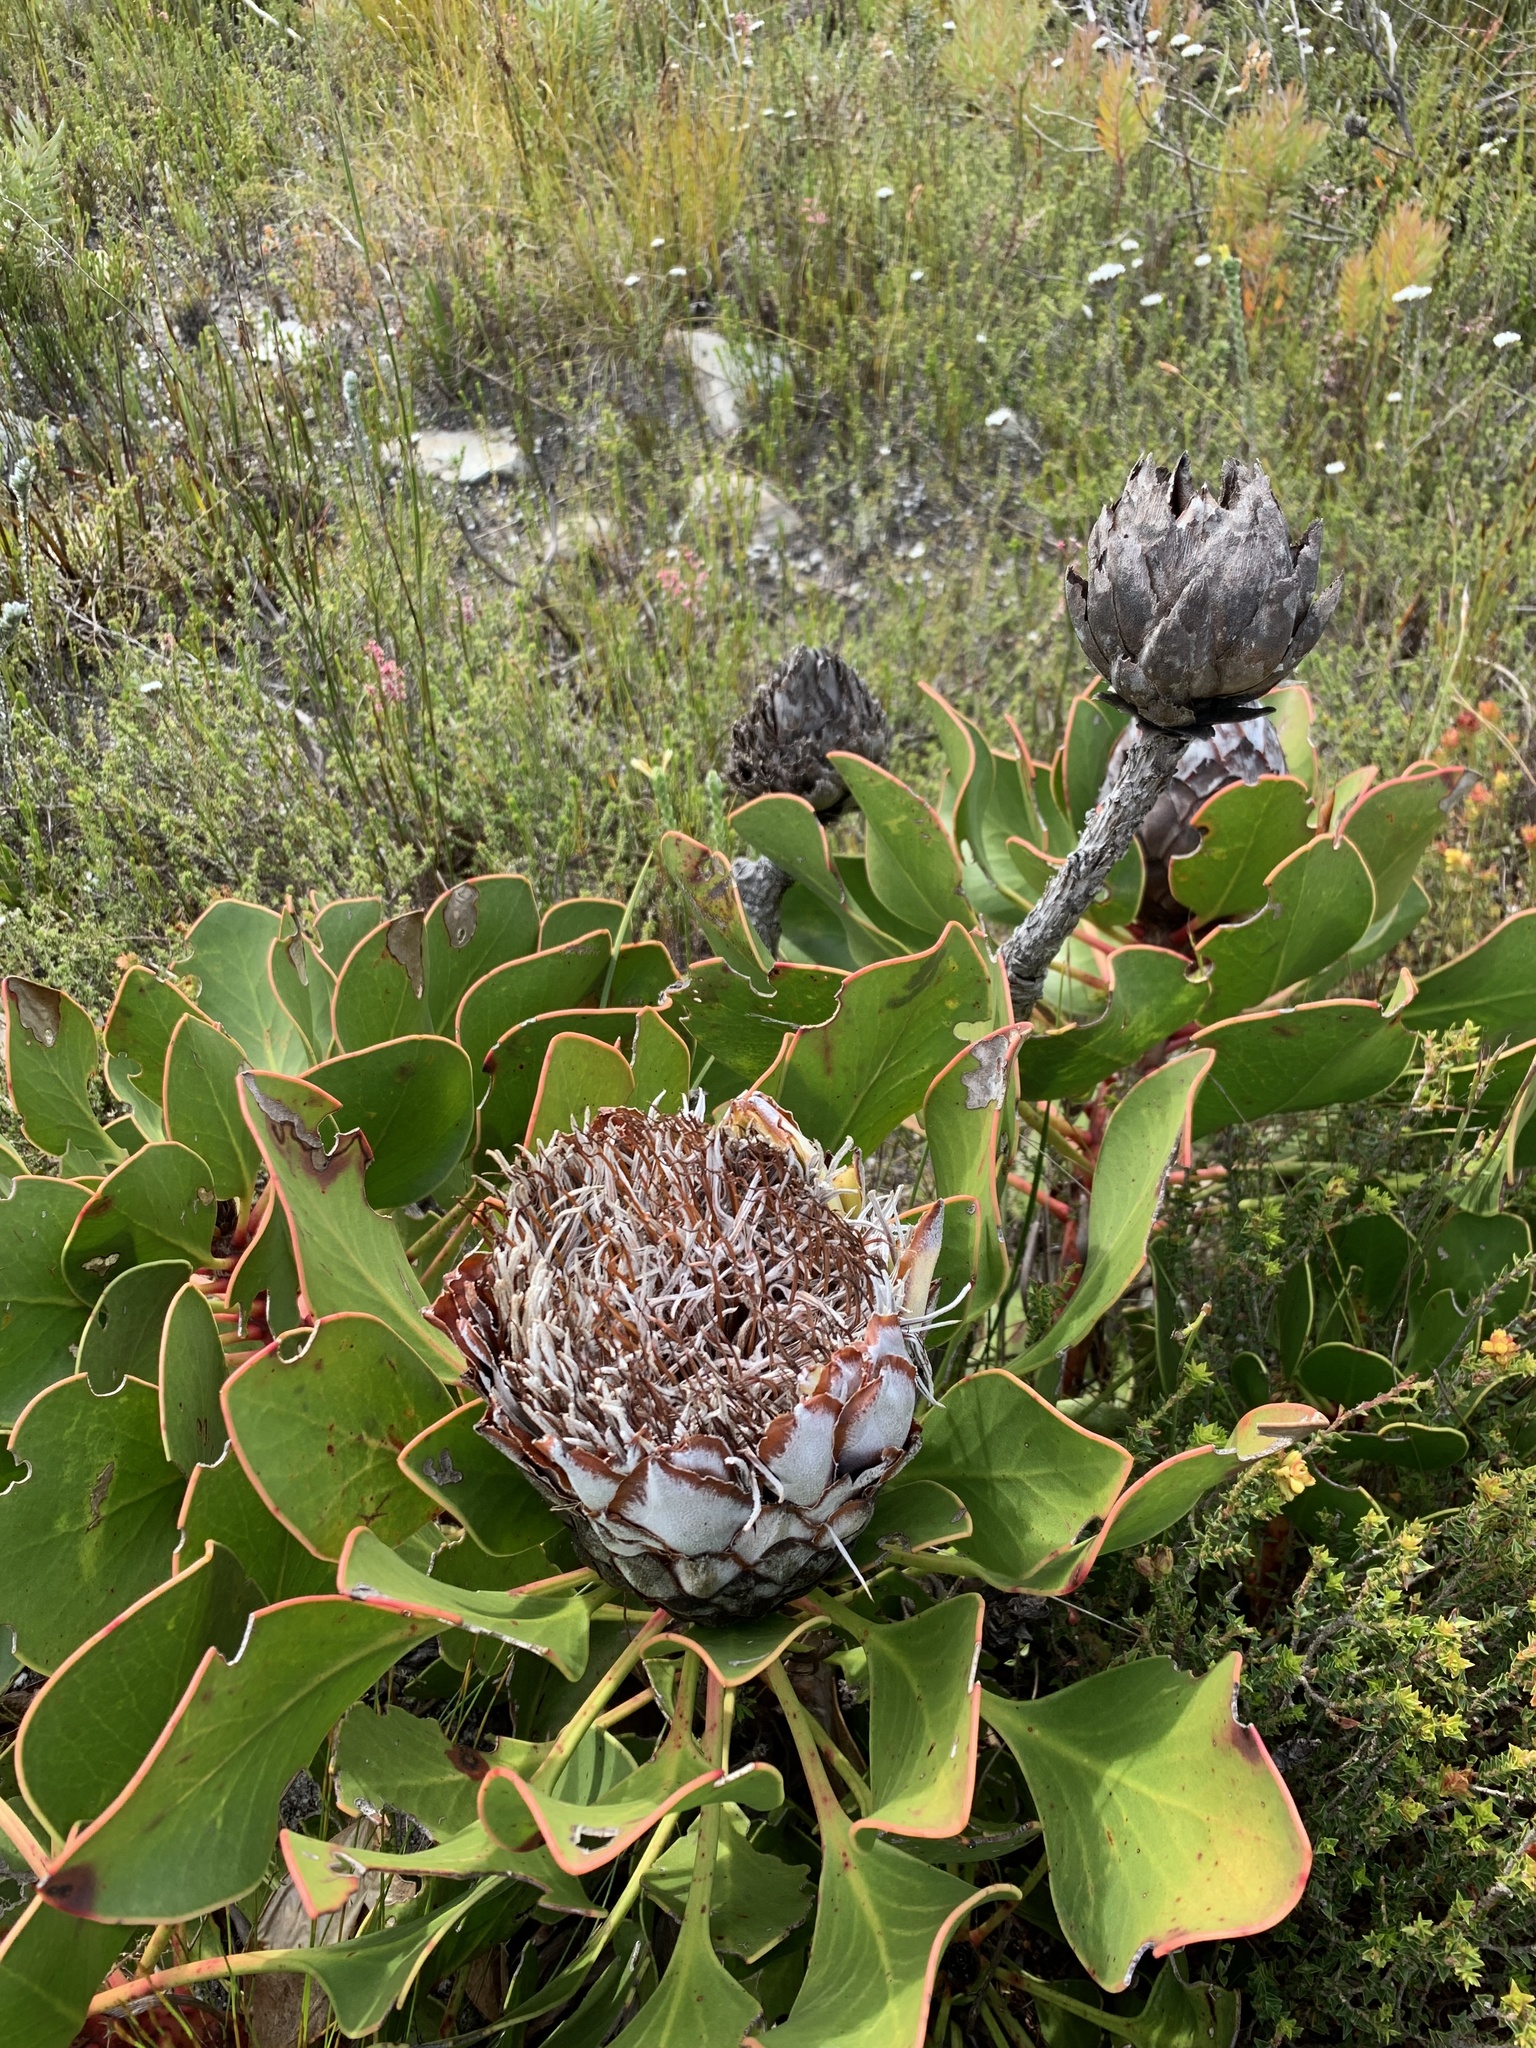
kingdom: Plantae
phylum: Tracheophyta
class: Magnoliopsida
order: Proteales
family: Proteaceae
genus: Protea
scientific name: Protea cynaroides
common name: King protea
